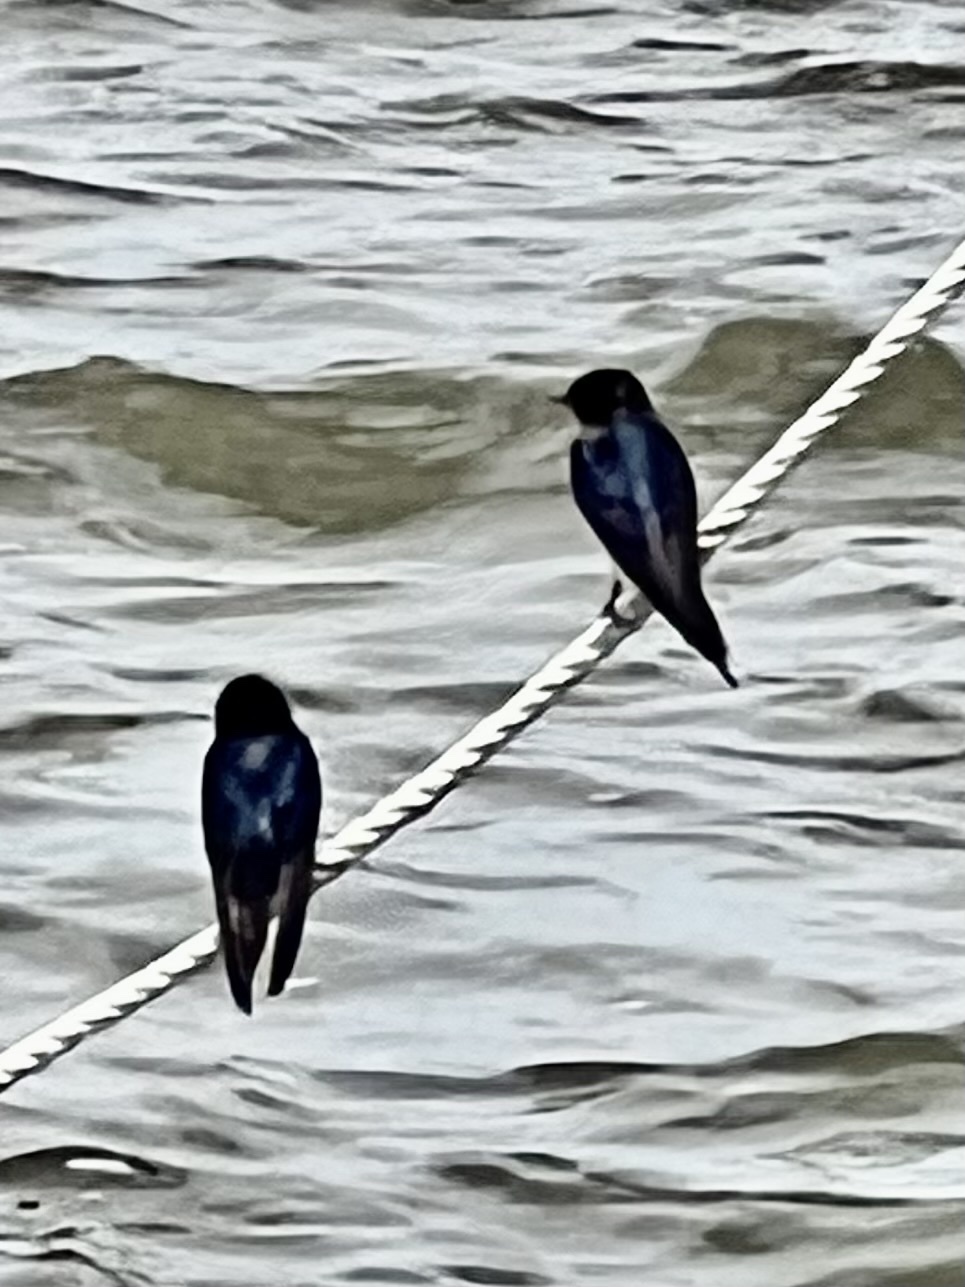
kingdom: Animalia
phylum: Chordata
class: Aves
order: Passeriformes
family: Hirundinidae
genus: Hirundo
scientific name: Hirundo rustica
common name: Barn swallow
